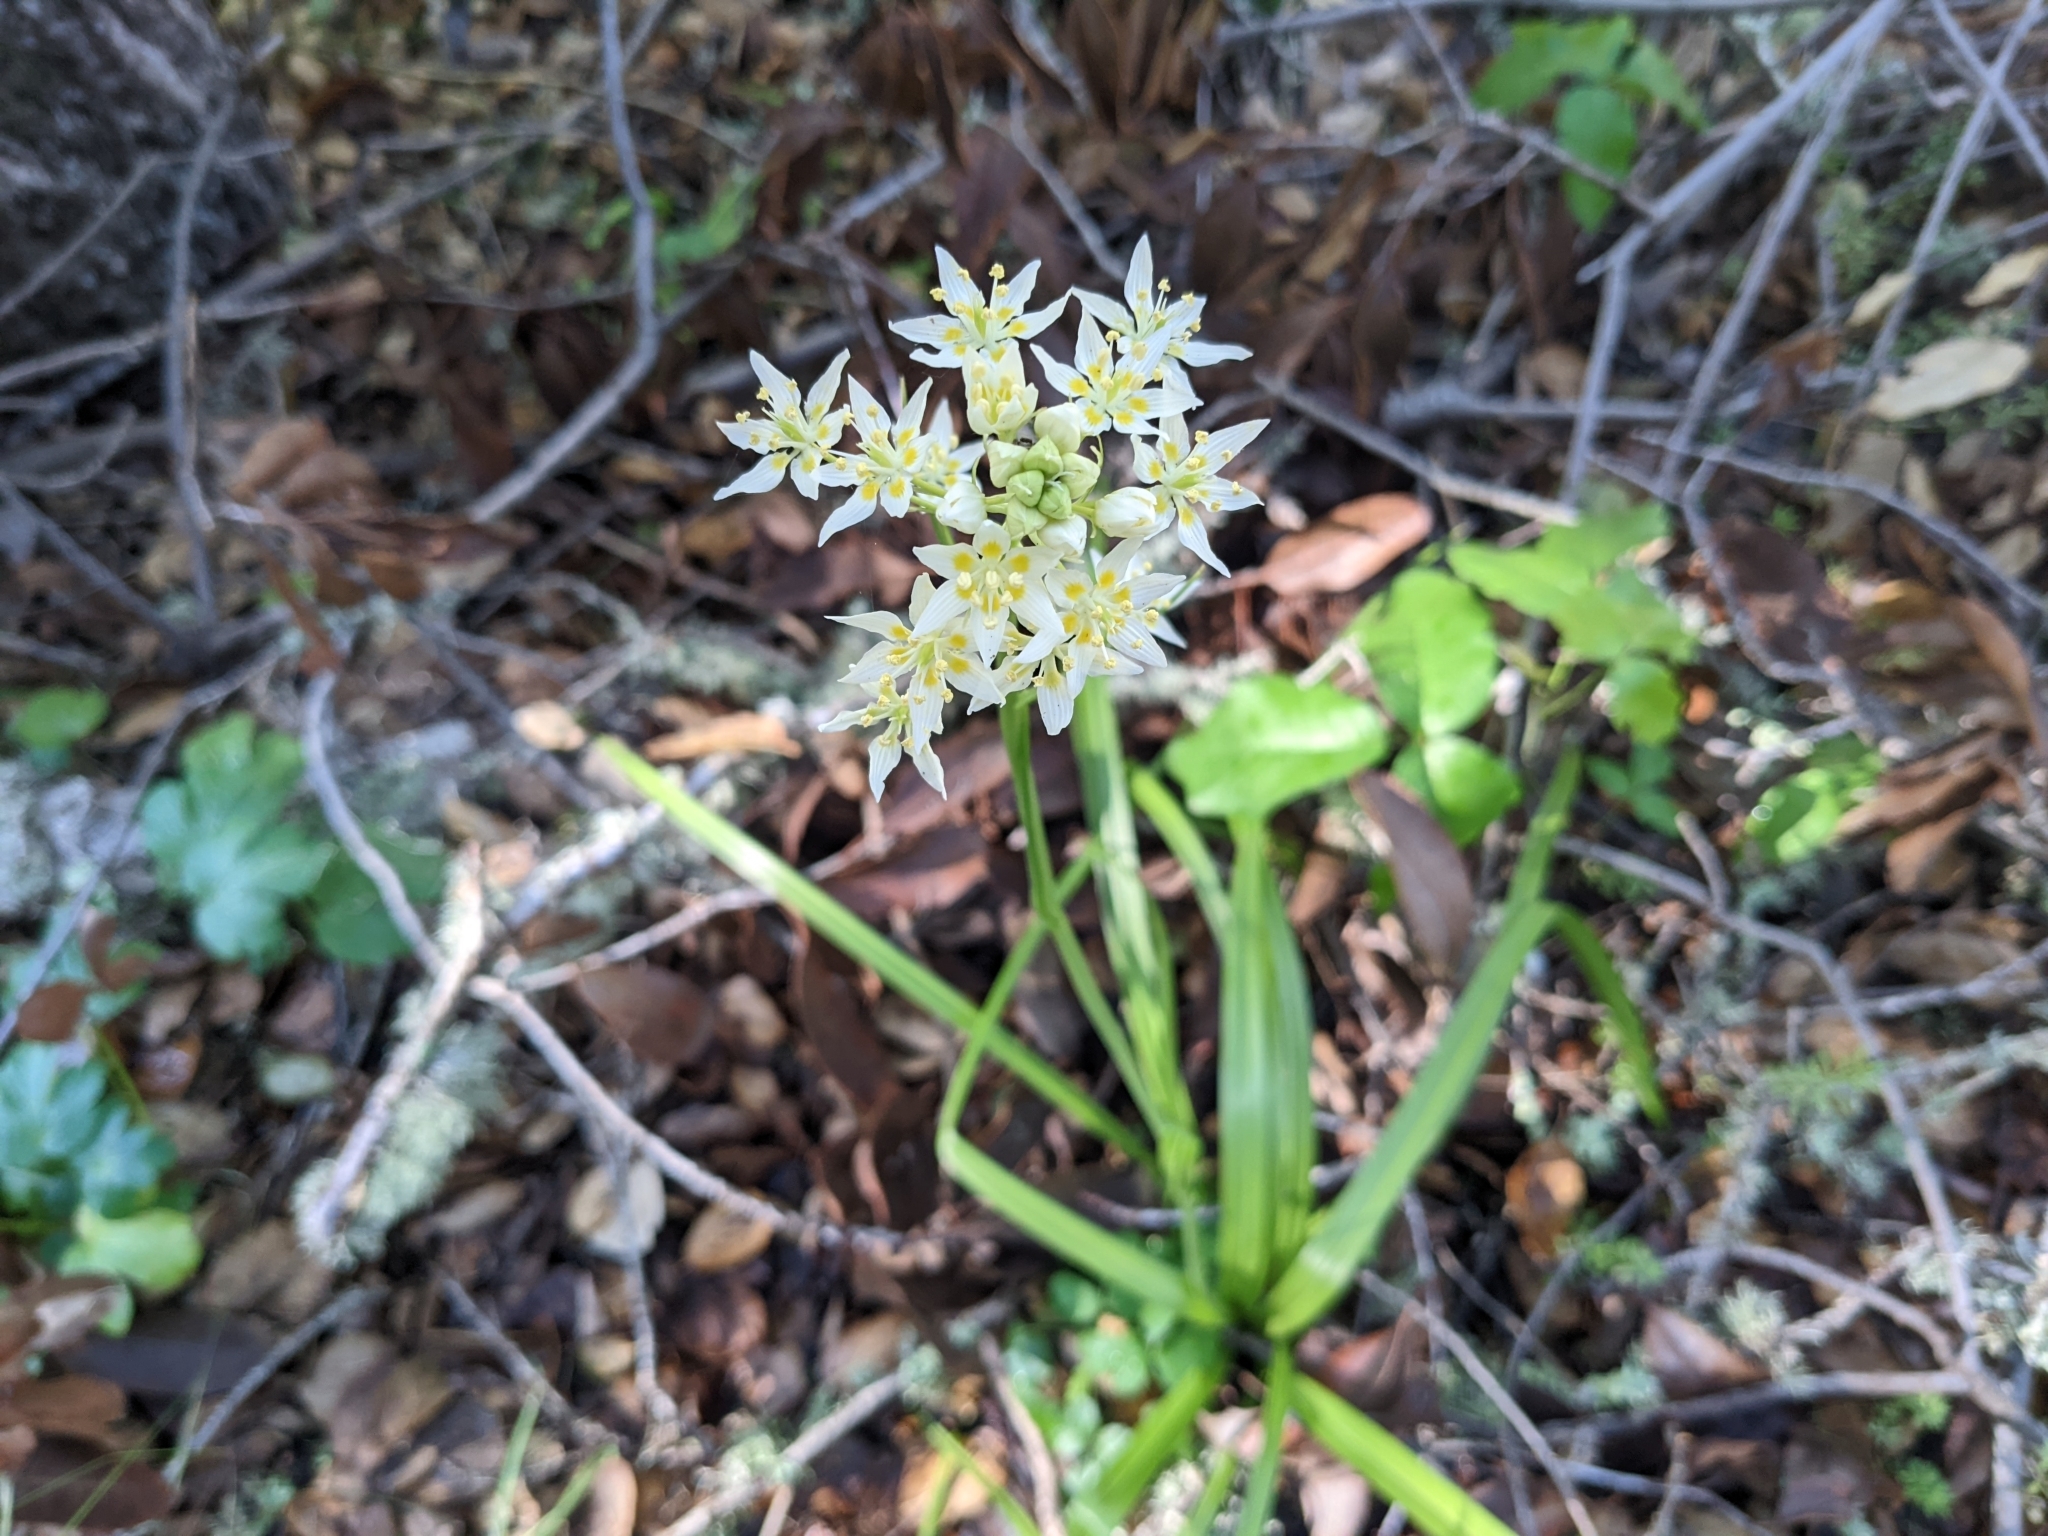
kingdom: Plantae
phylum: Tracheophyta
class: Liliopsida
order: Liliales
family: Melanthiaceae
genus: Toxicoscordion
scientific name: Toxicoscordion fremontii
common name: Fremont's death camas
